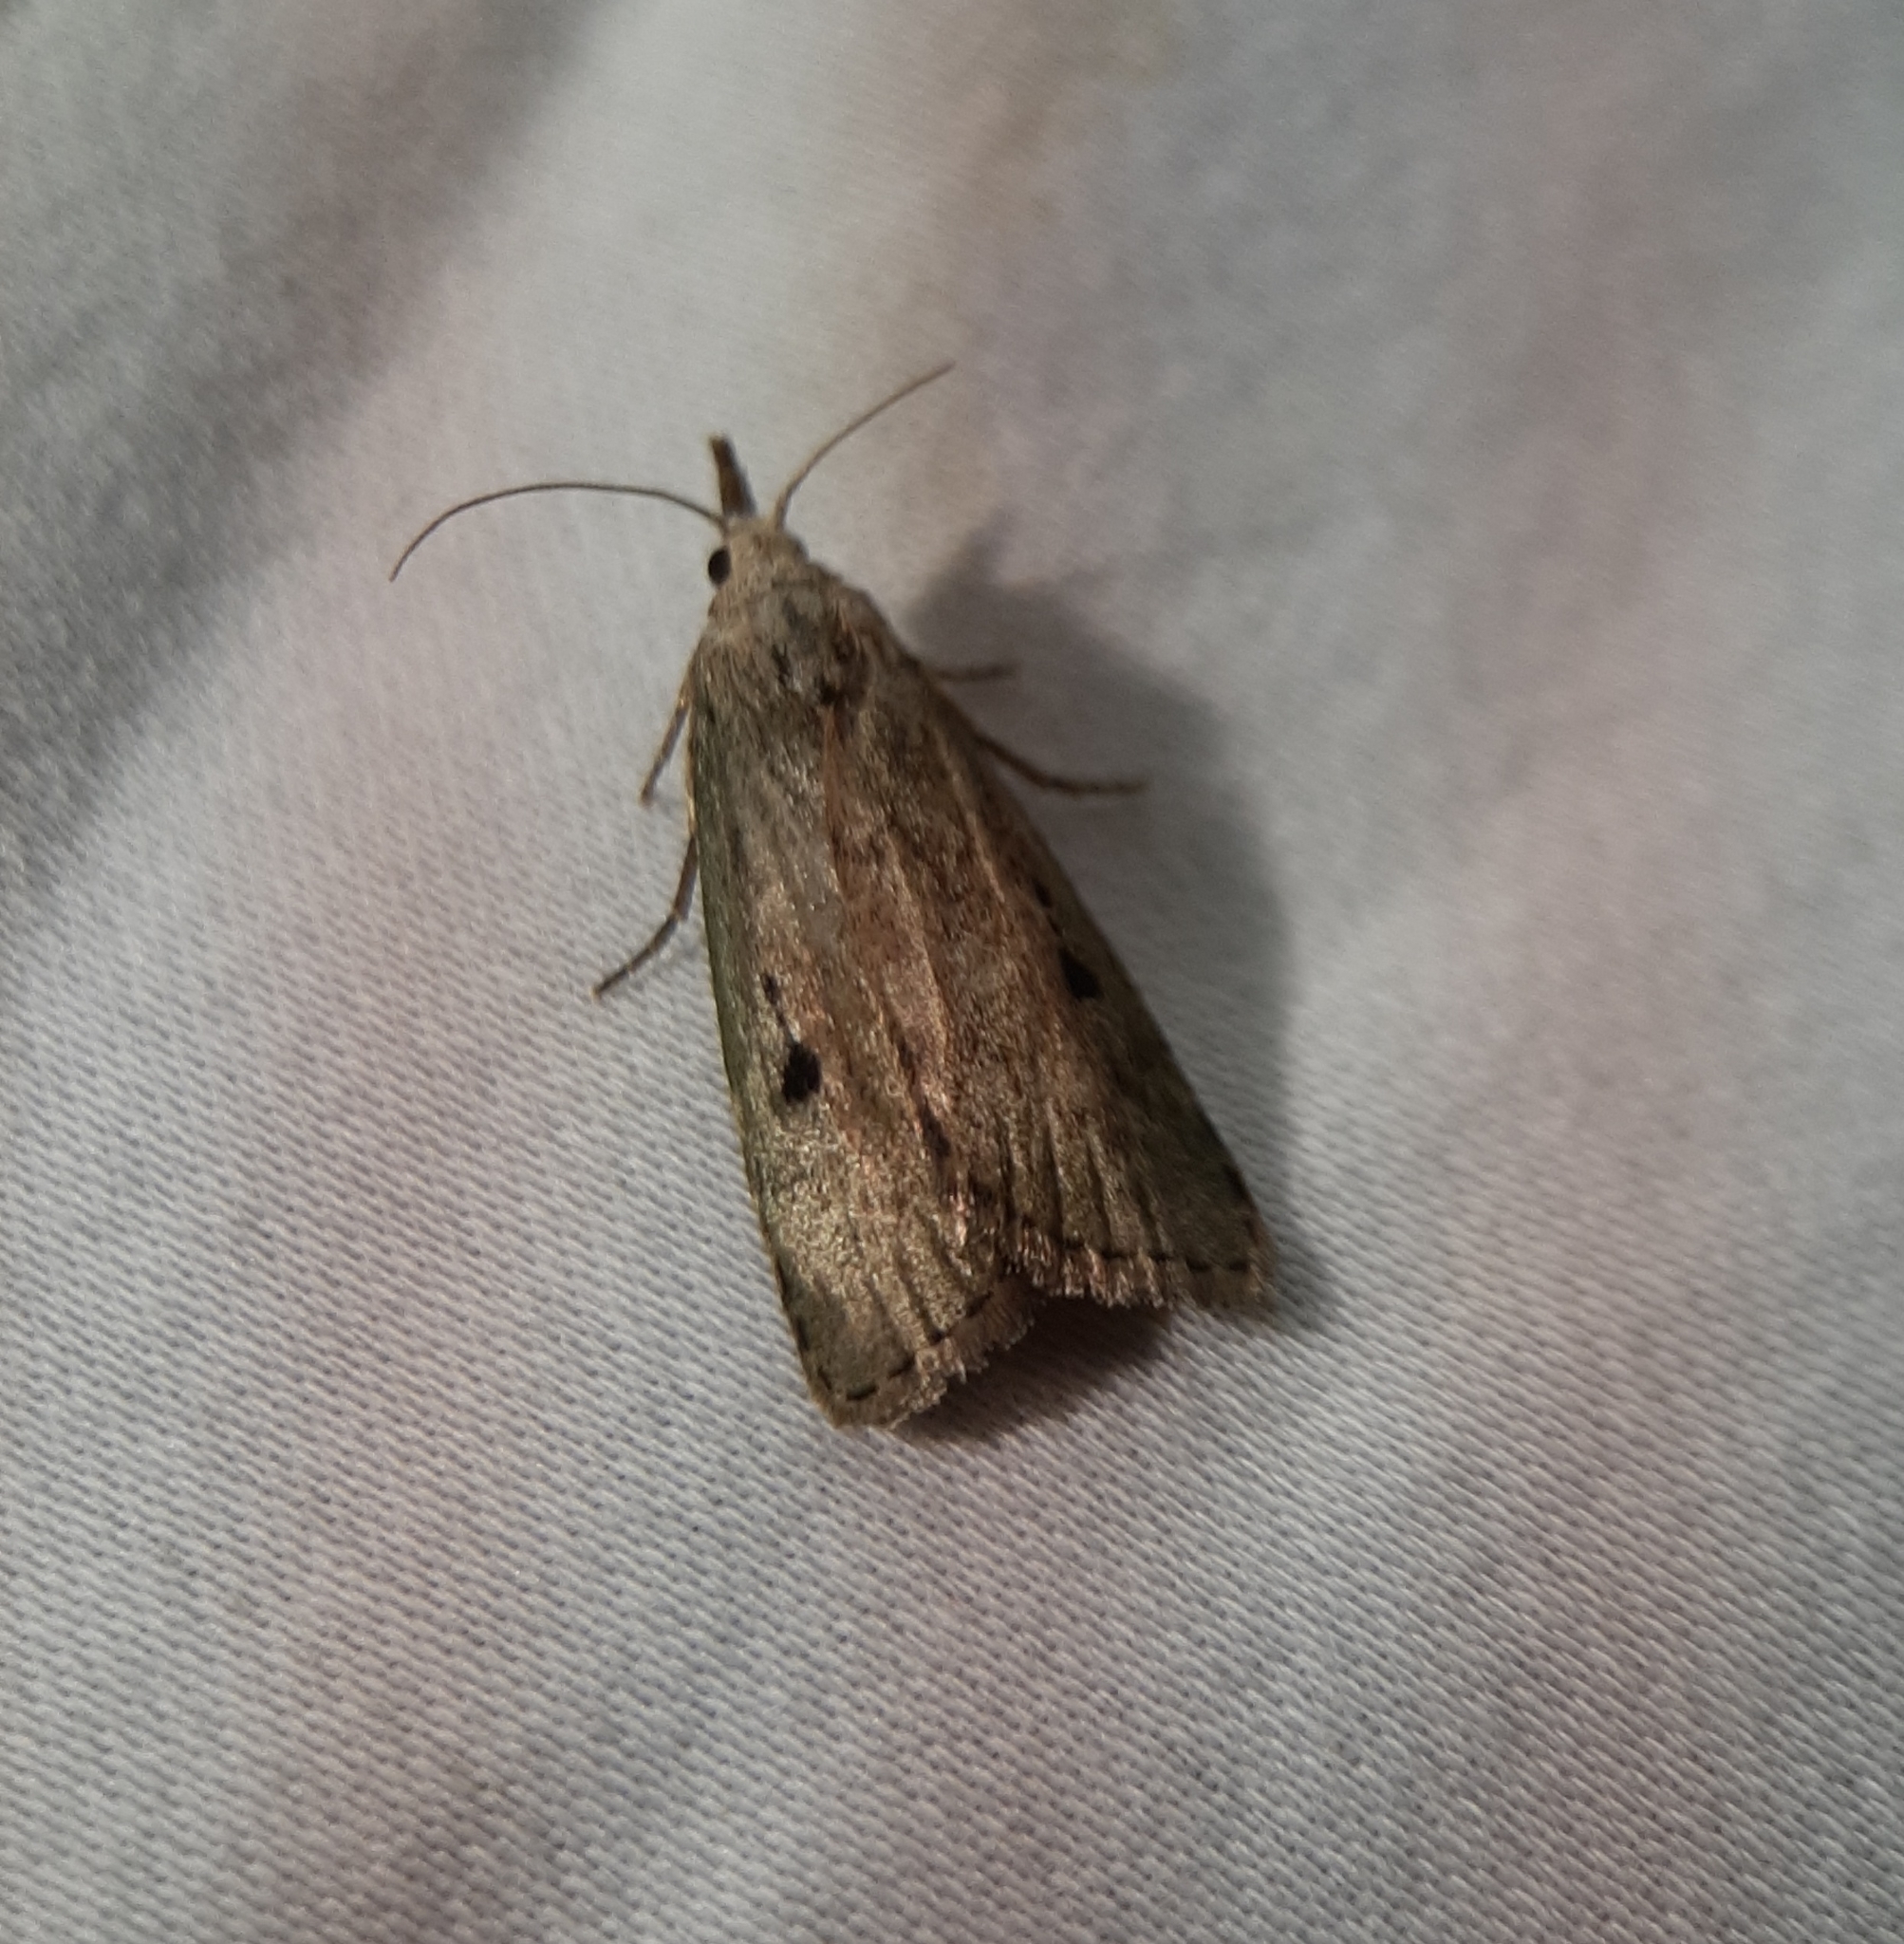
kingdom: Animalia
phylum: Arthropoda
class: Insecta
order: Lepidoptera
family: Pyralidae
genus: Aphomia
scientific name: Aphomia sociella
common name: Bee moth
